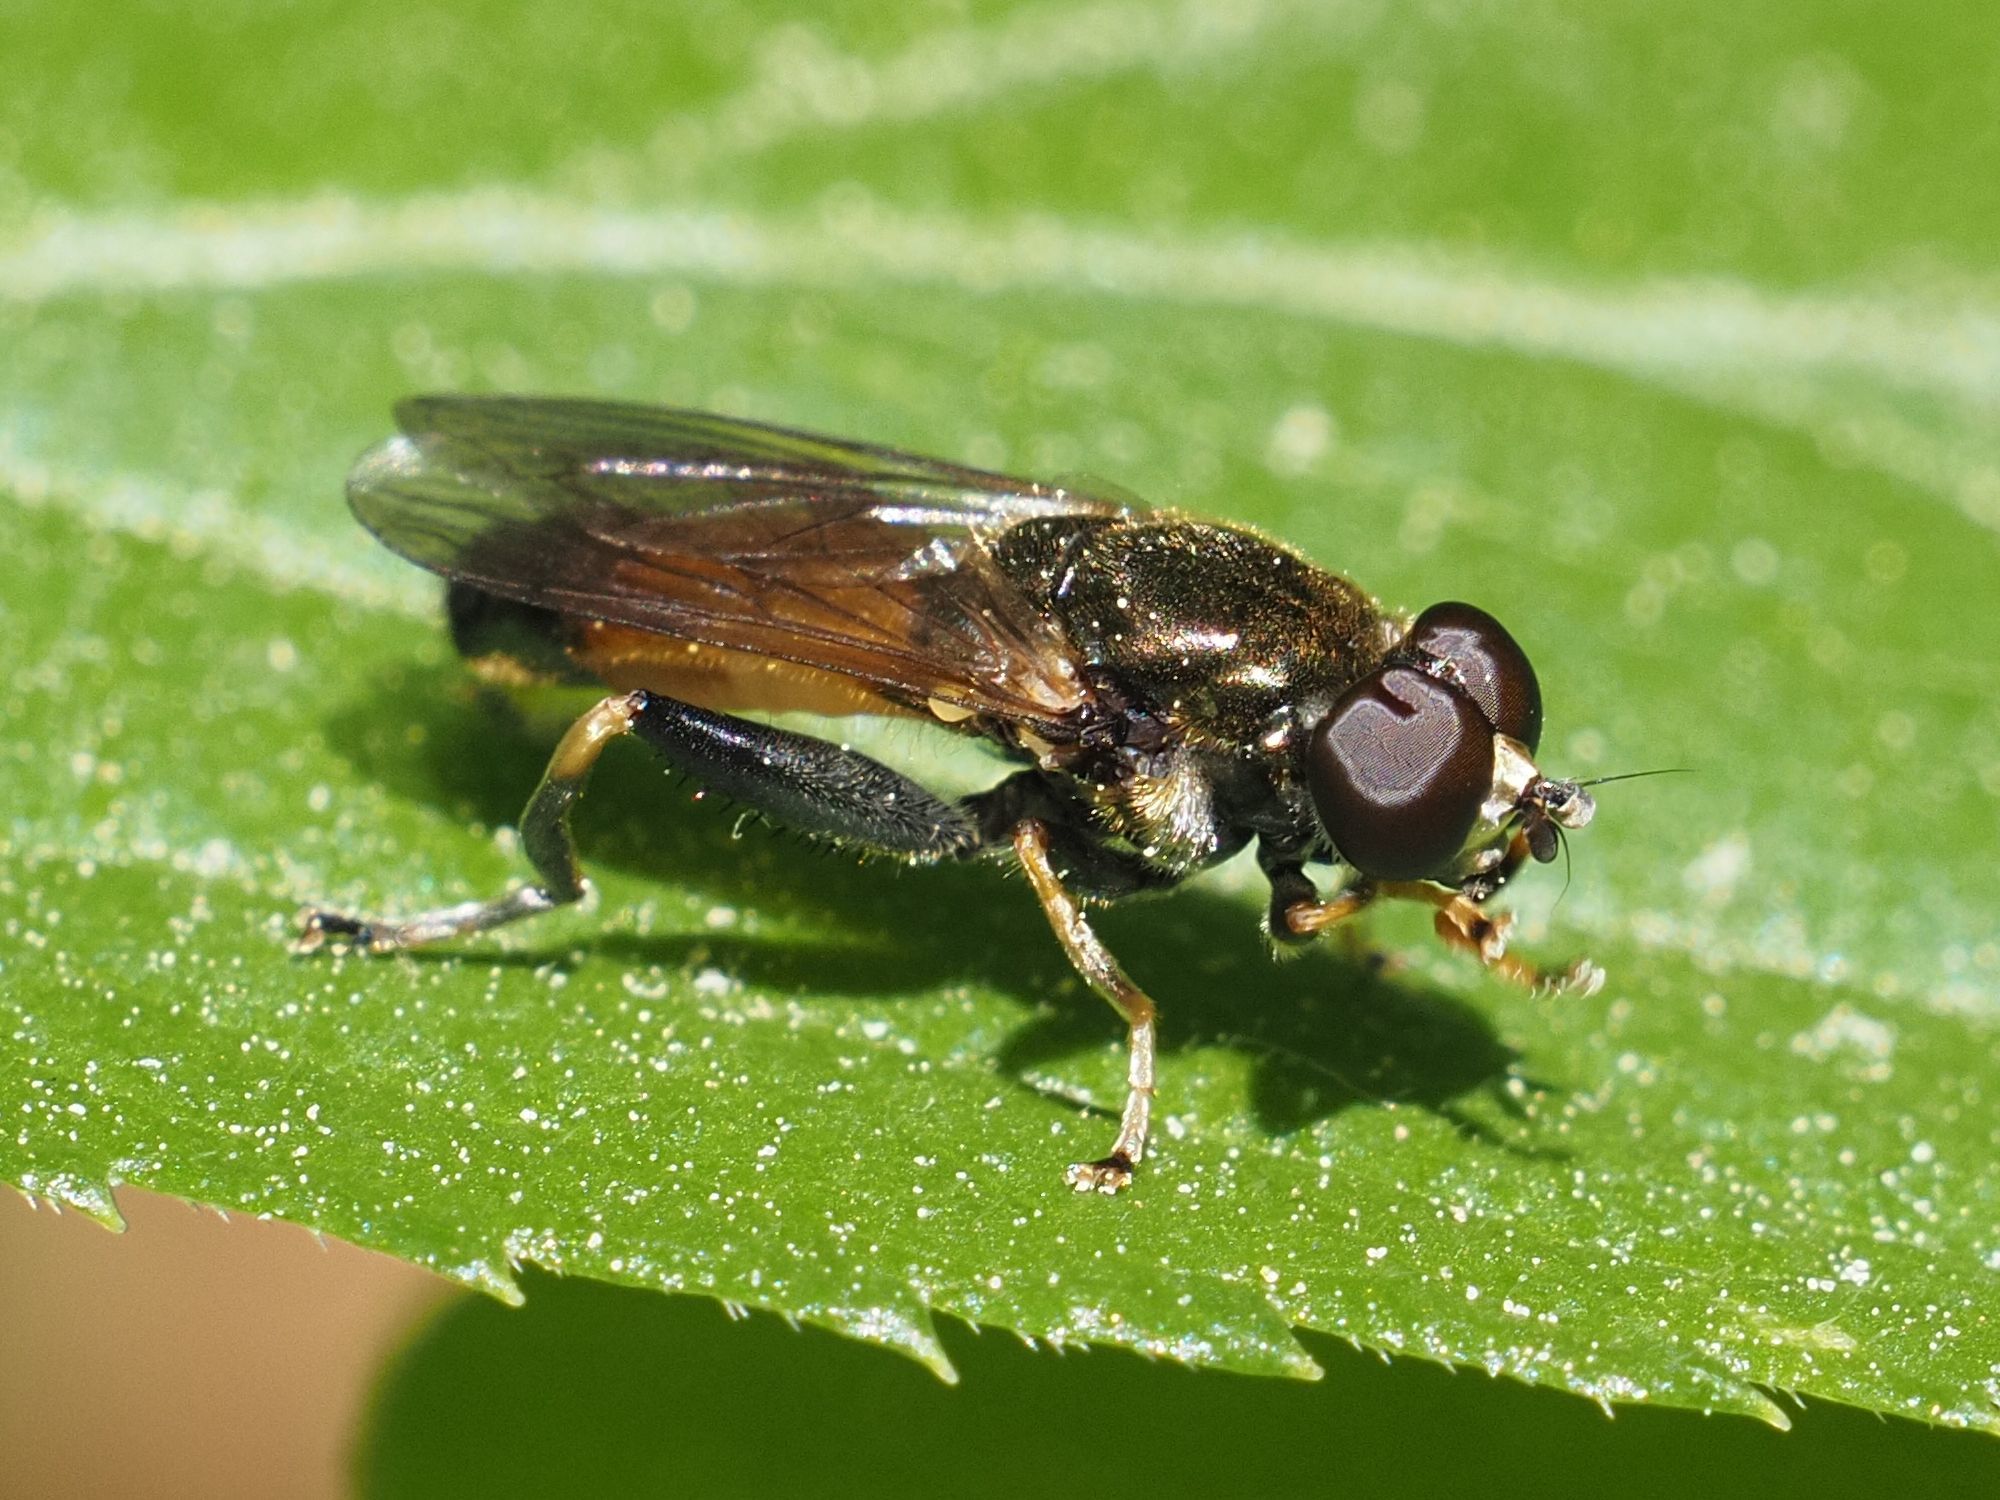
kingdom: Animalia
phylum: Arthropoda
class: Insecta
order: Diptera
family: Syrphidae
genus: Xylota
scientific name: Xylota segnis
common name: Brown-toed forest fly
